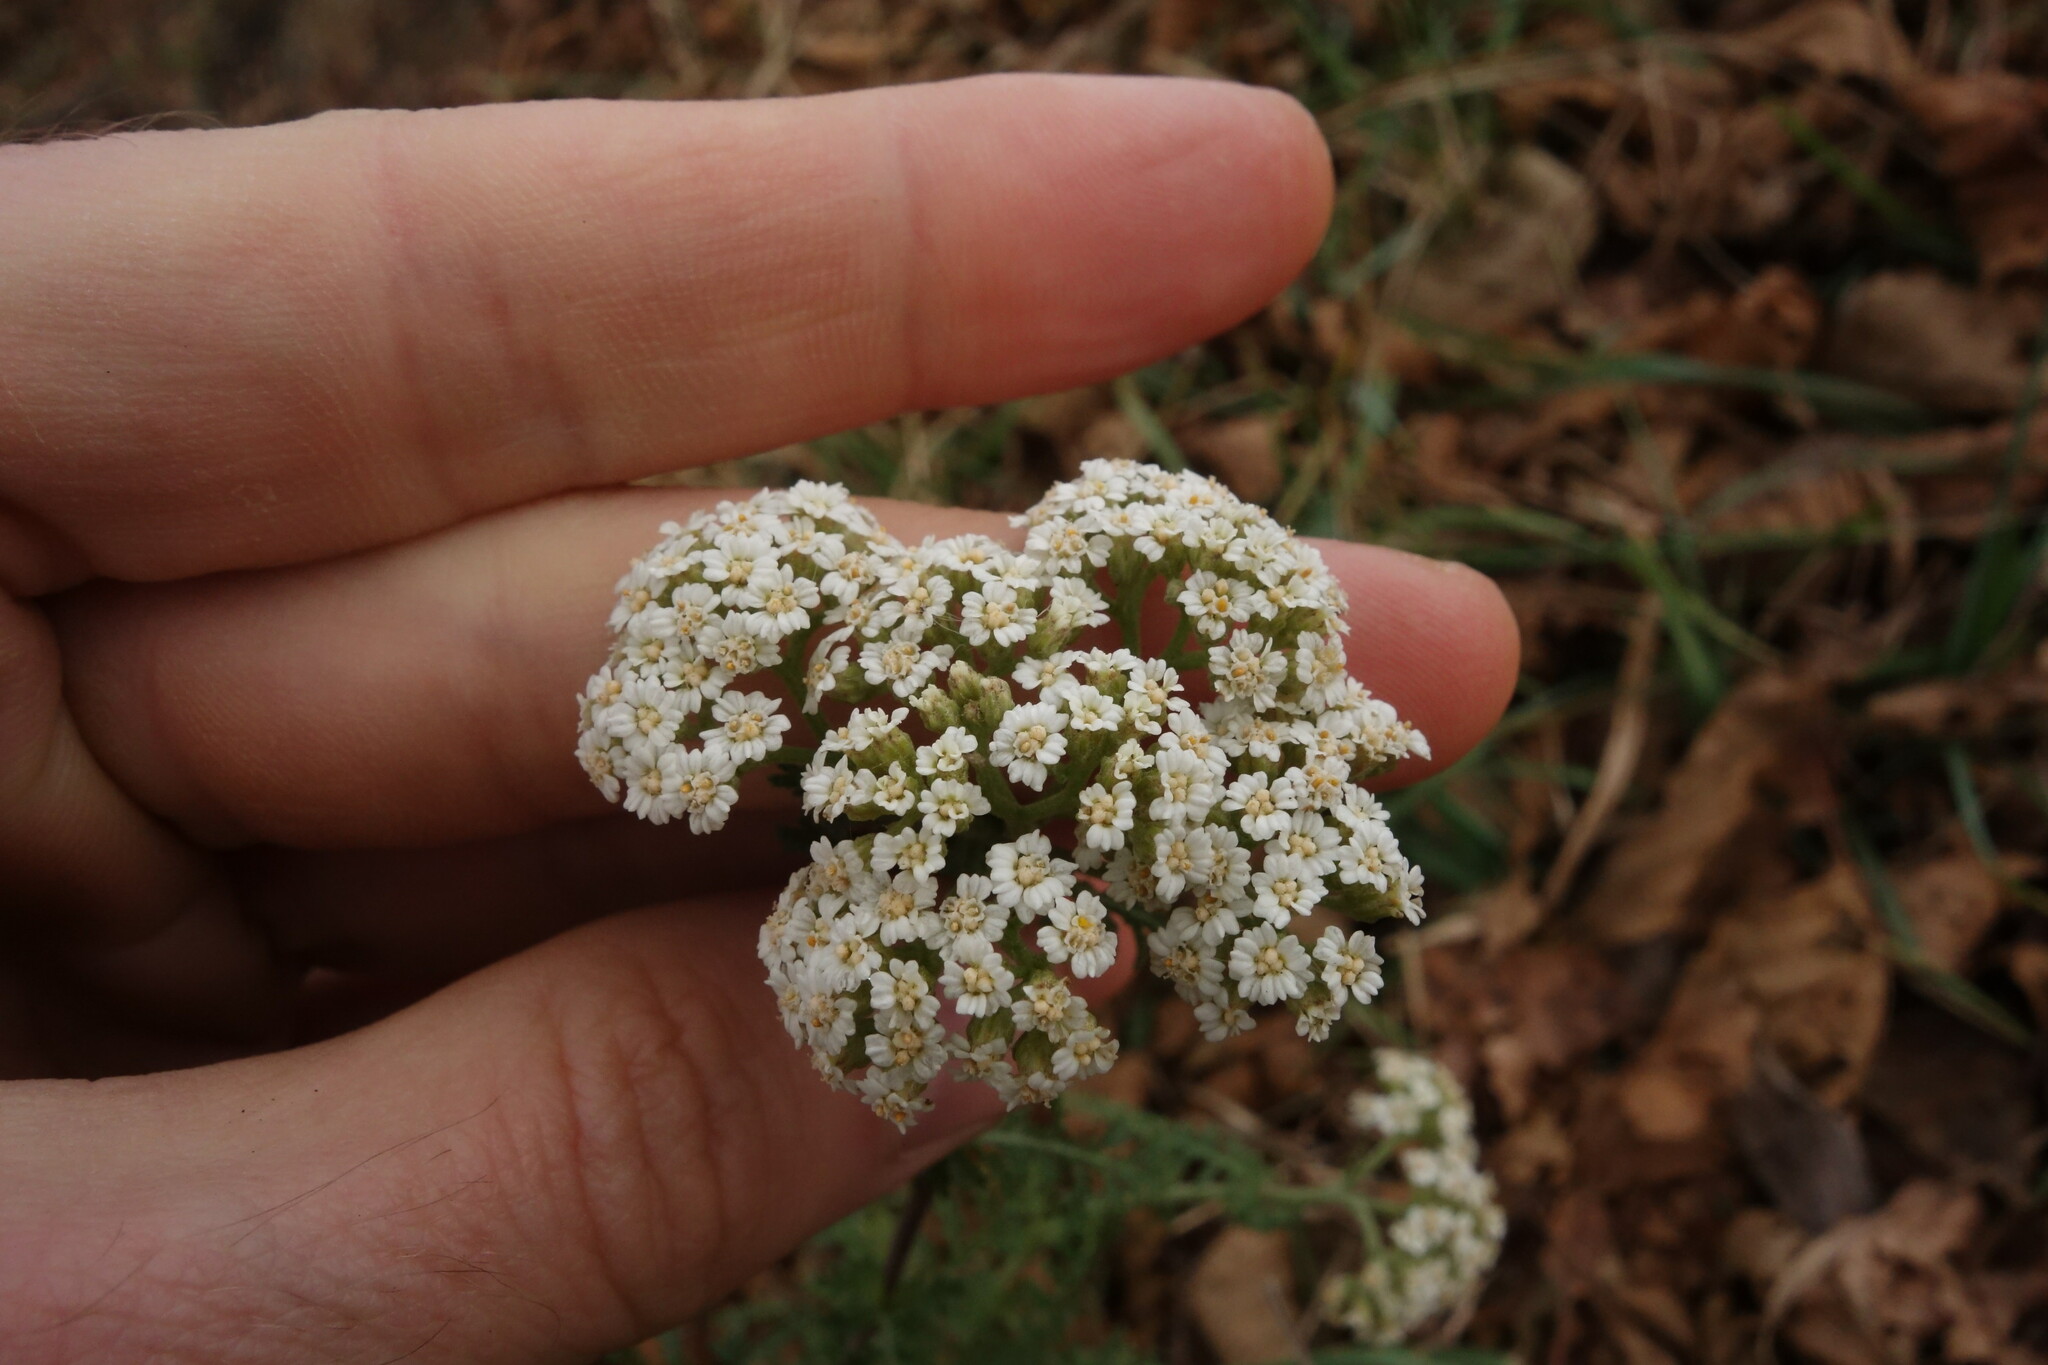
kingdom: Plantae
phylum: Tracheophyta
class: Magnoliopsida
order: Asterales
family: Asteraceae
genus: Achillea
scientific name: Achillea nobilis
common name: Noble yarrow
